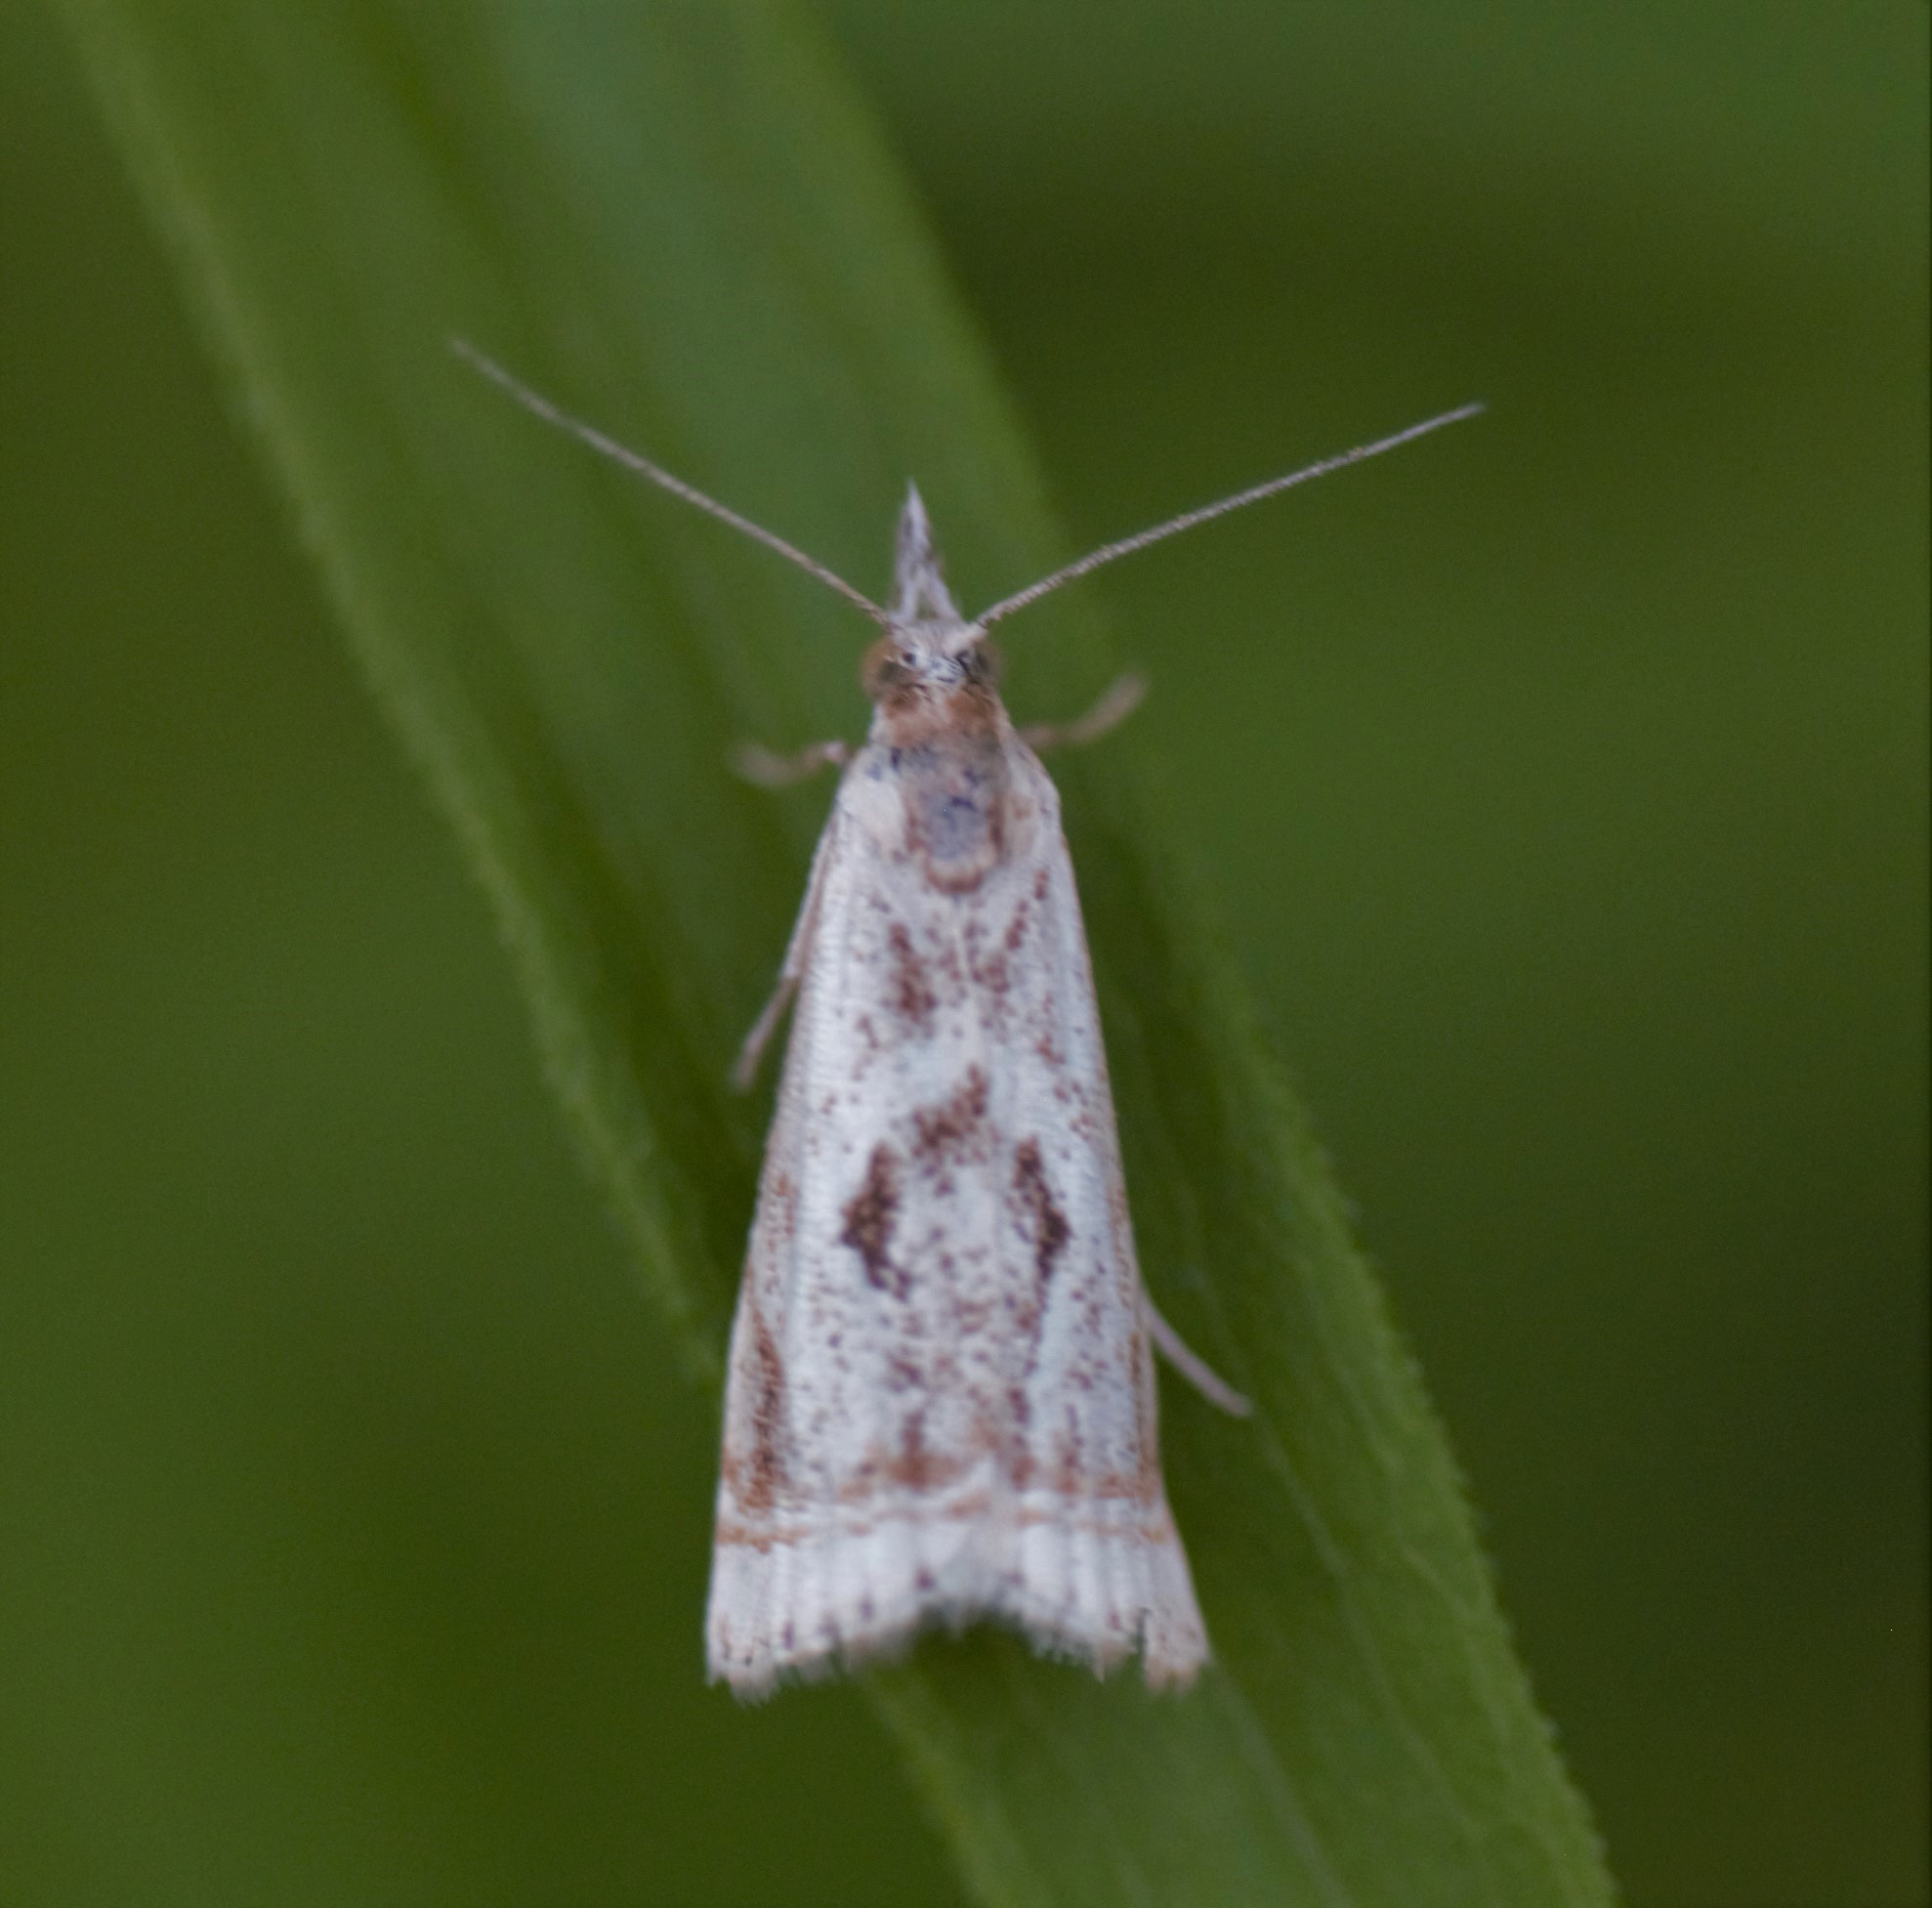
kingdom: Animalia
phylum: Arthropoda
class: Insecta
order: Lepidoptera
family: Crambidae
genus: Microcrambus
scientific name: Microcrambus elegans
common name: Elegant grass-veneer
